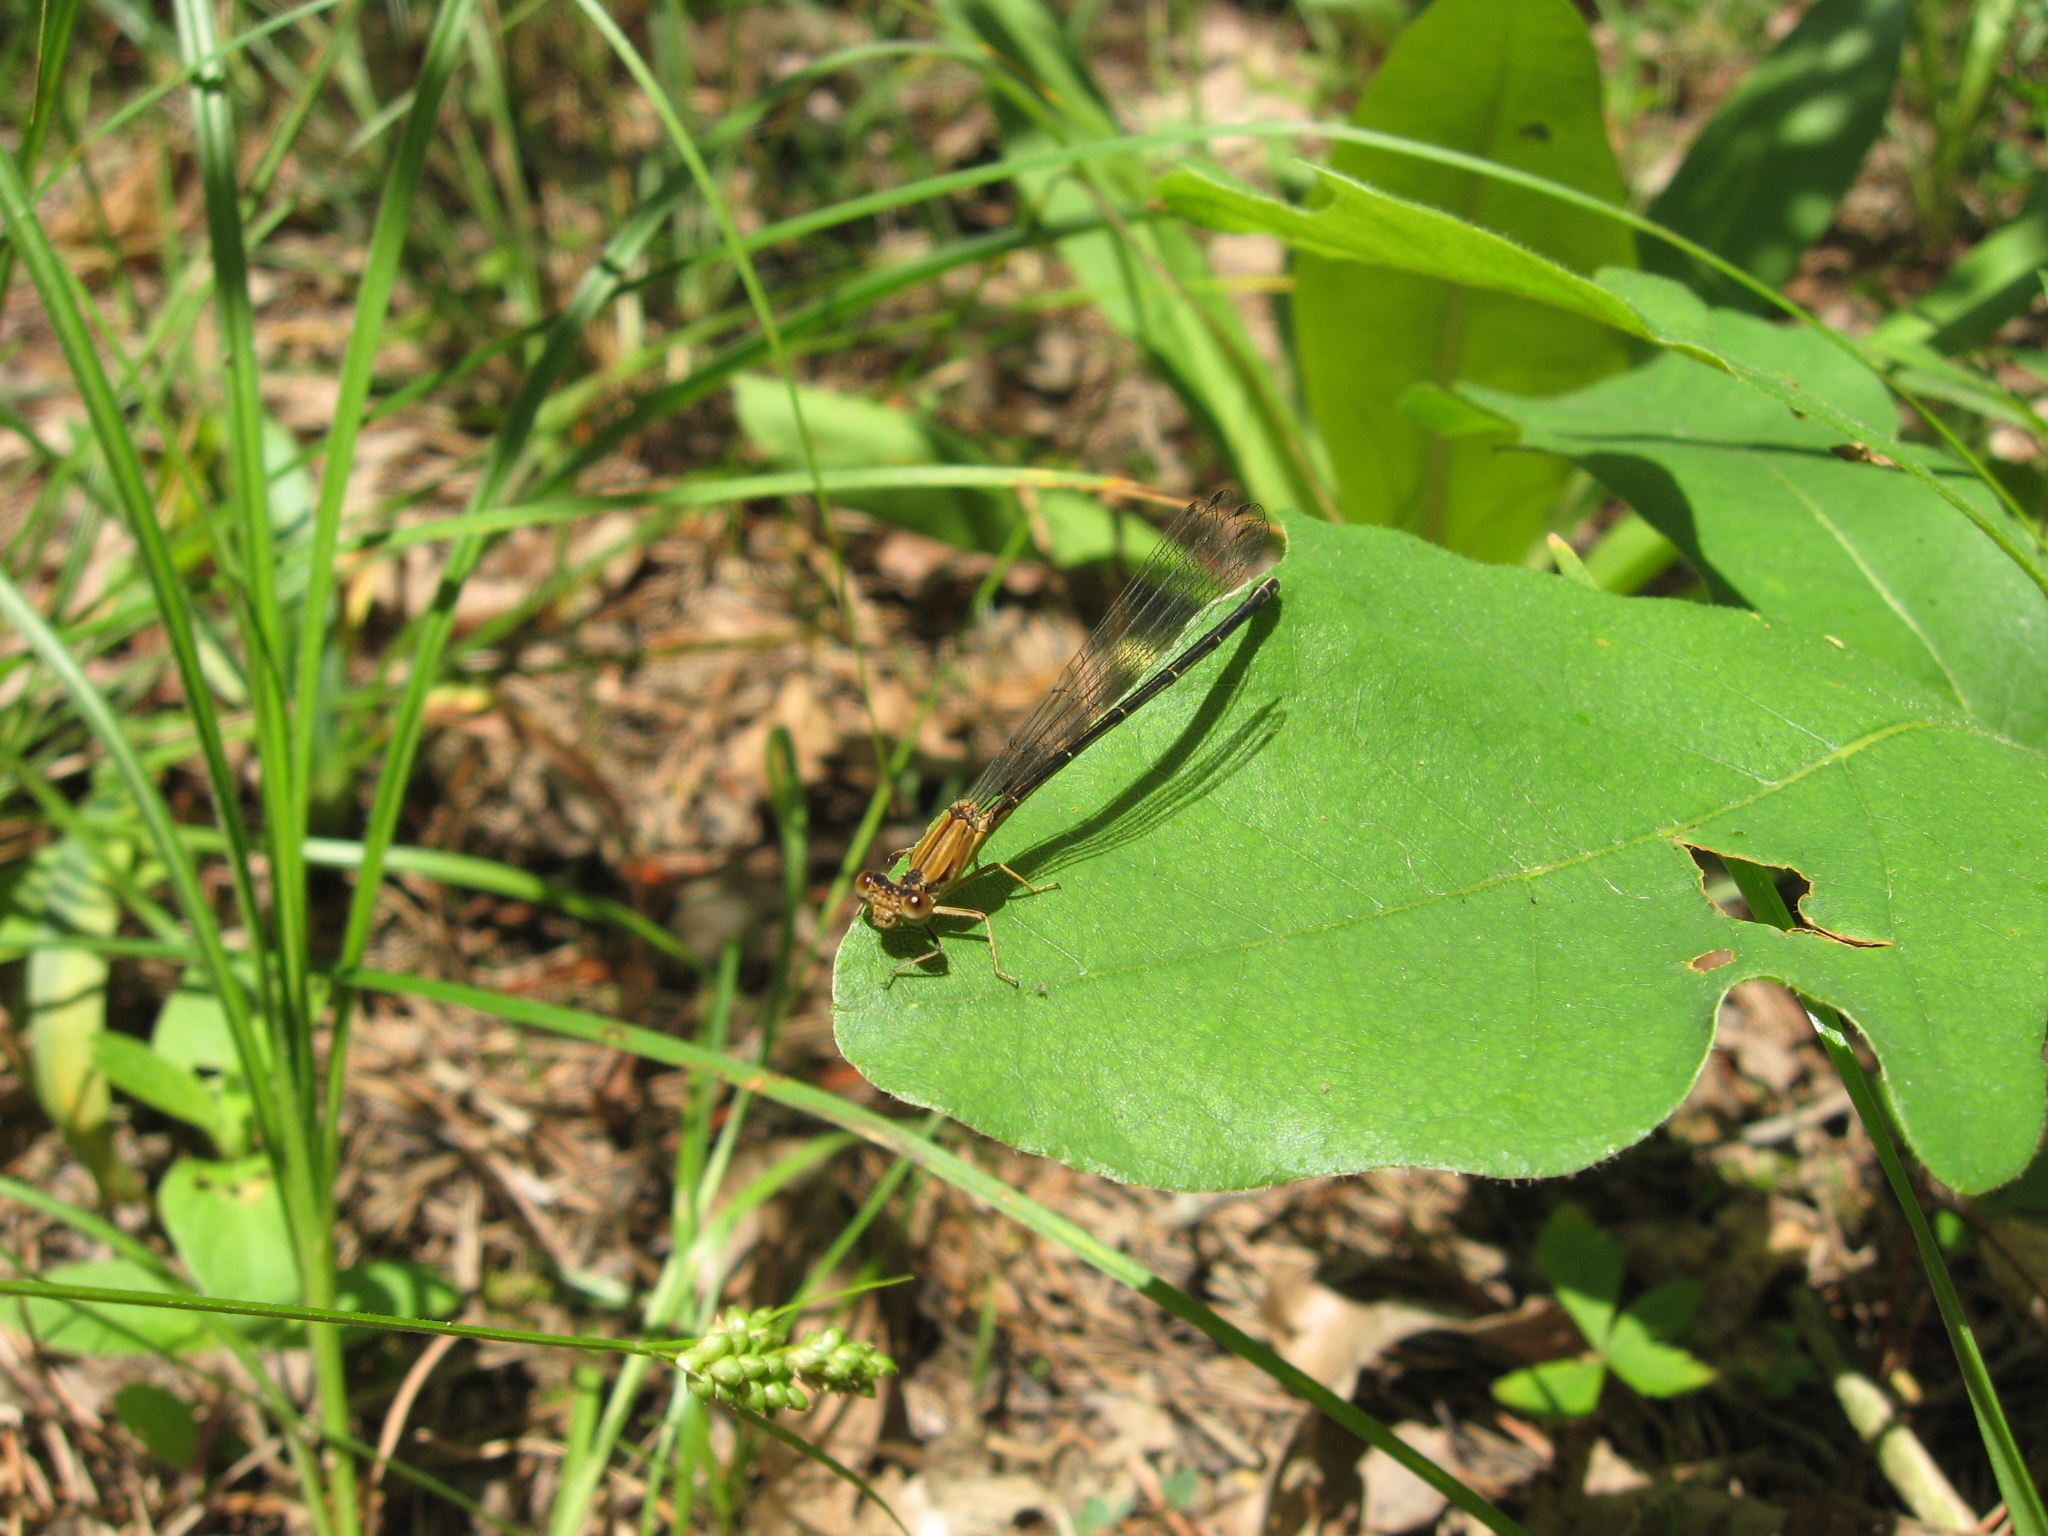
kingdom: Animalia
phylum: Arthropoda
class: Insecta
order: Odonata
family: Coenagrionidae
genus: Argia
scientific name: Argia apicalis
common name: Blue-fronted dancer
